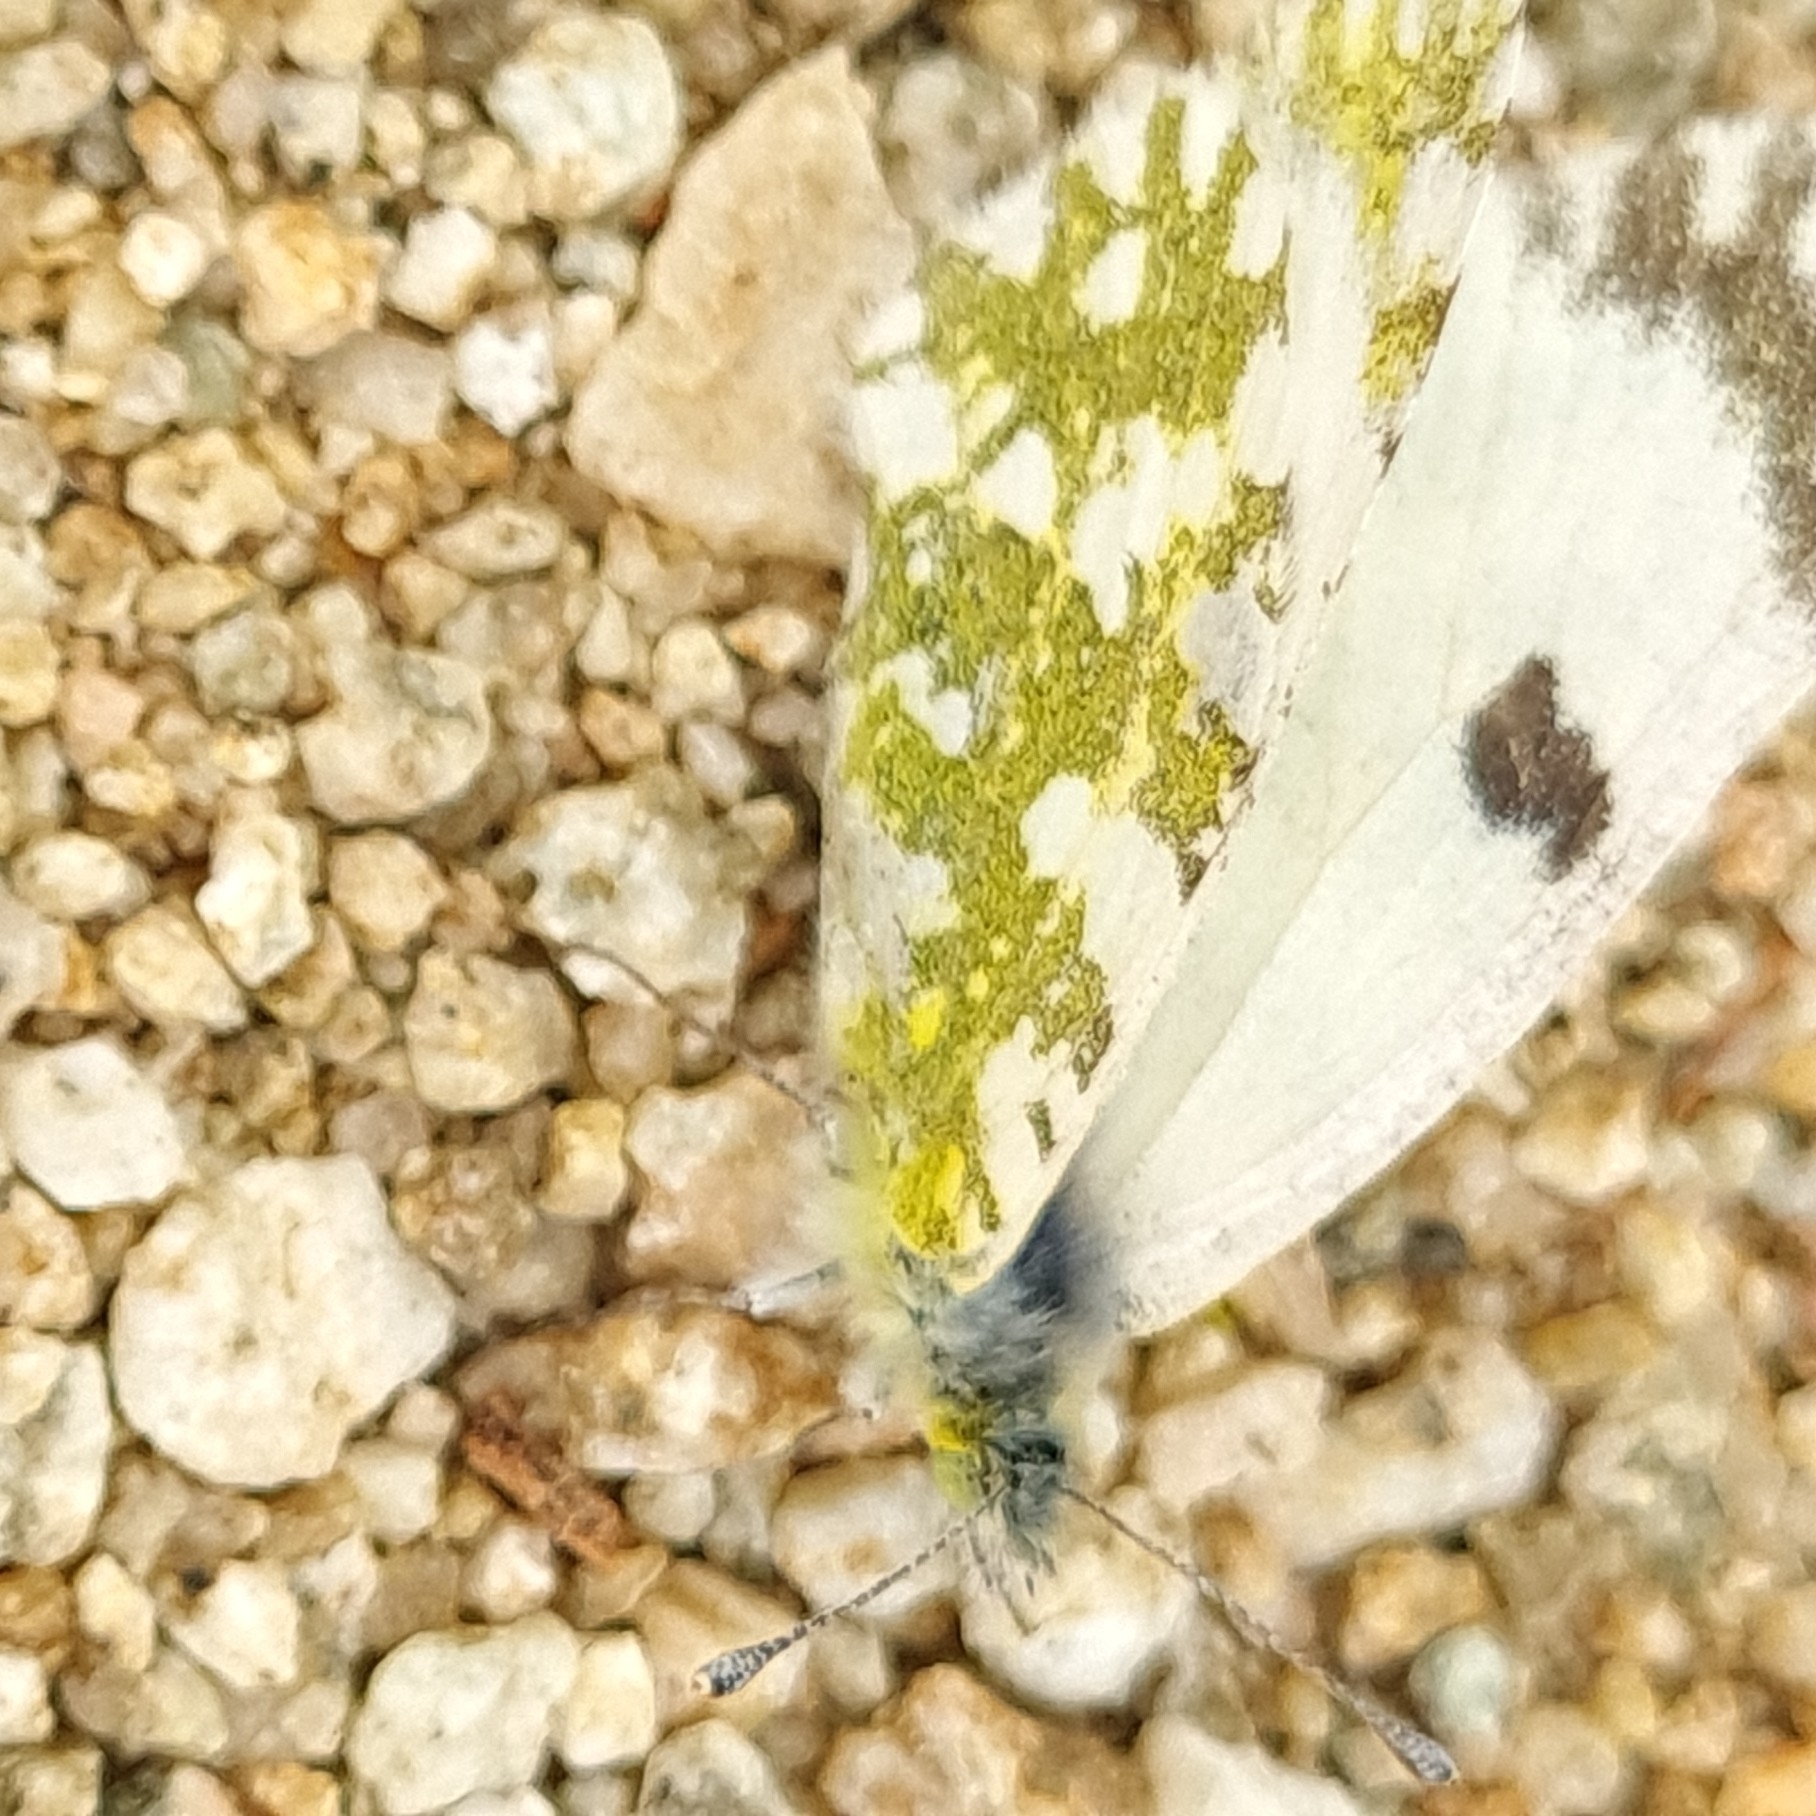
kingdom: Animalia
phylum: Arthropoda
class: Insecta
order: Lepidoptera
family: Pieridae
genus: Euchloe
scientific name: Euchloe crameri
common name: Western dappled white
